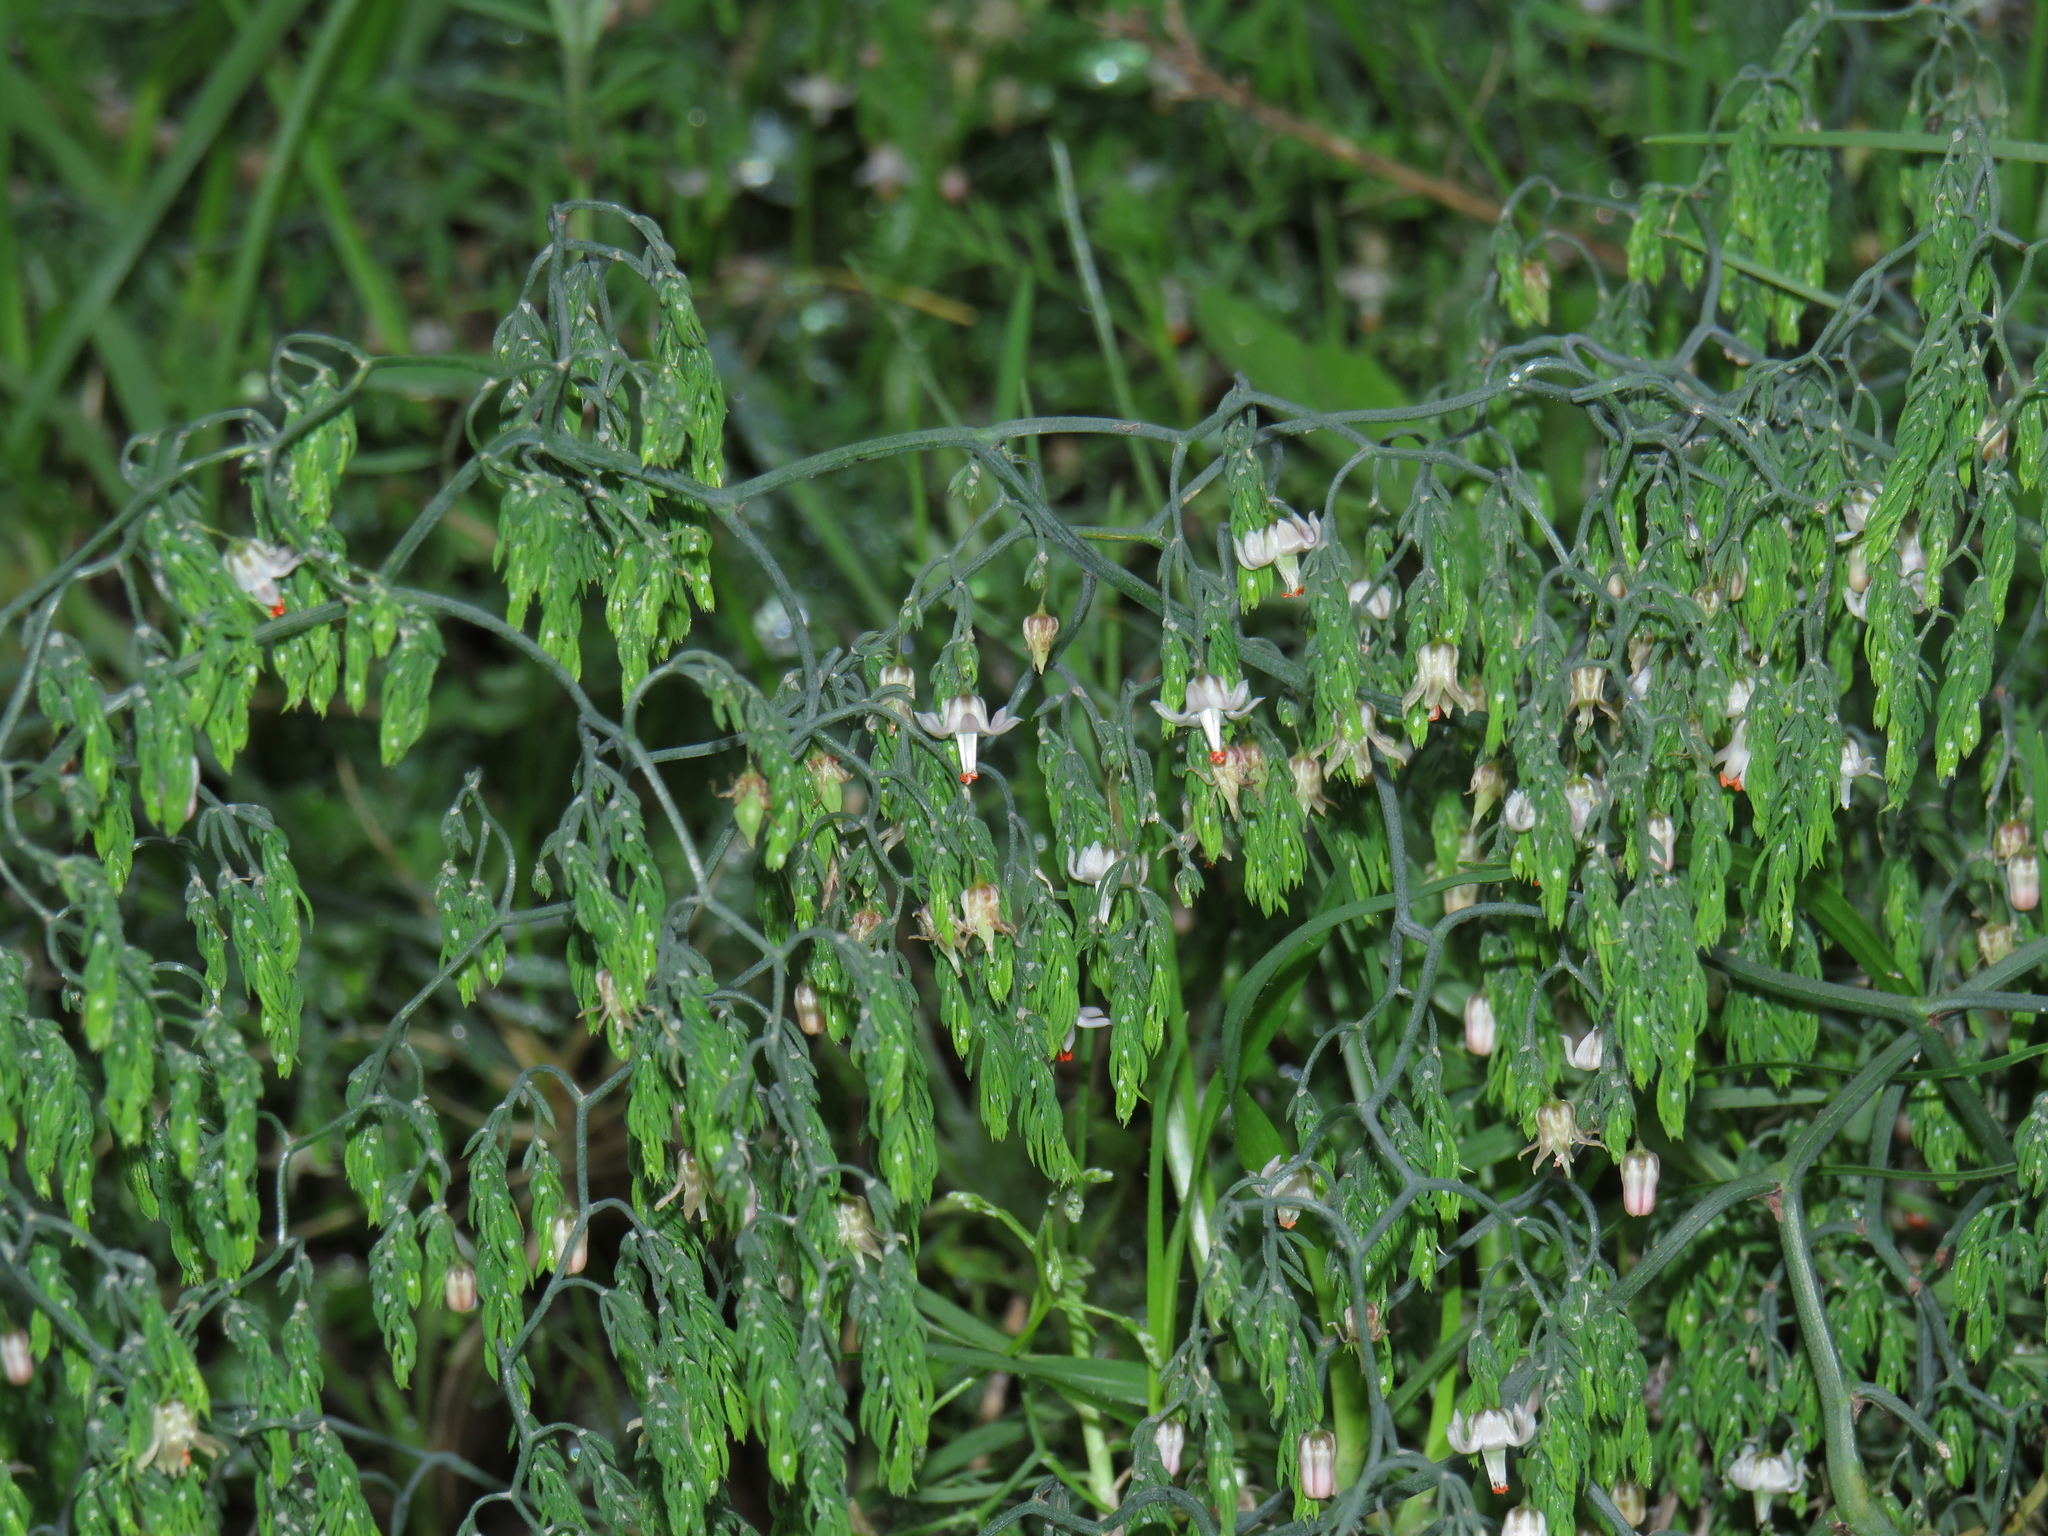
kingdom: Plantae
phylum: Tracheophyta
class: Liliopsida
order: Asparagales
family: Asparagaceae
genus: Asparagus
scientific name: Asparagus declinatus
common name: Bridal-creeper
